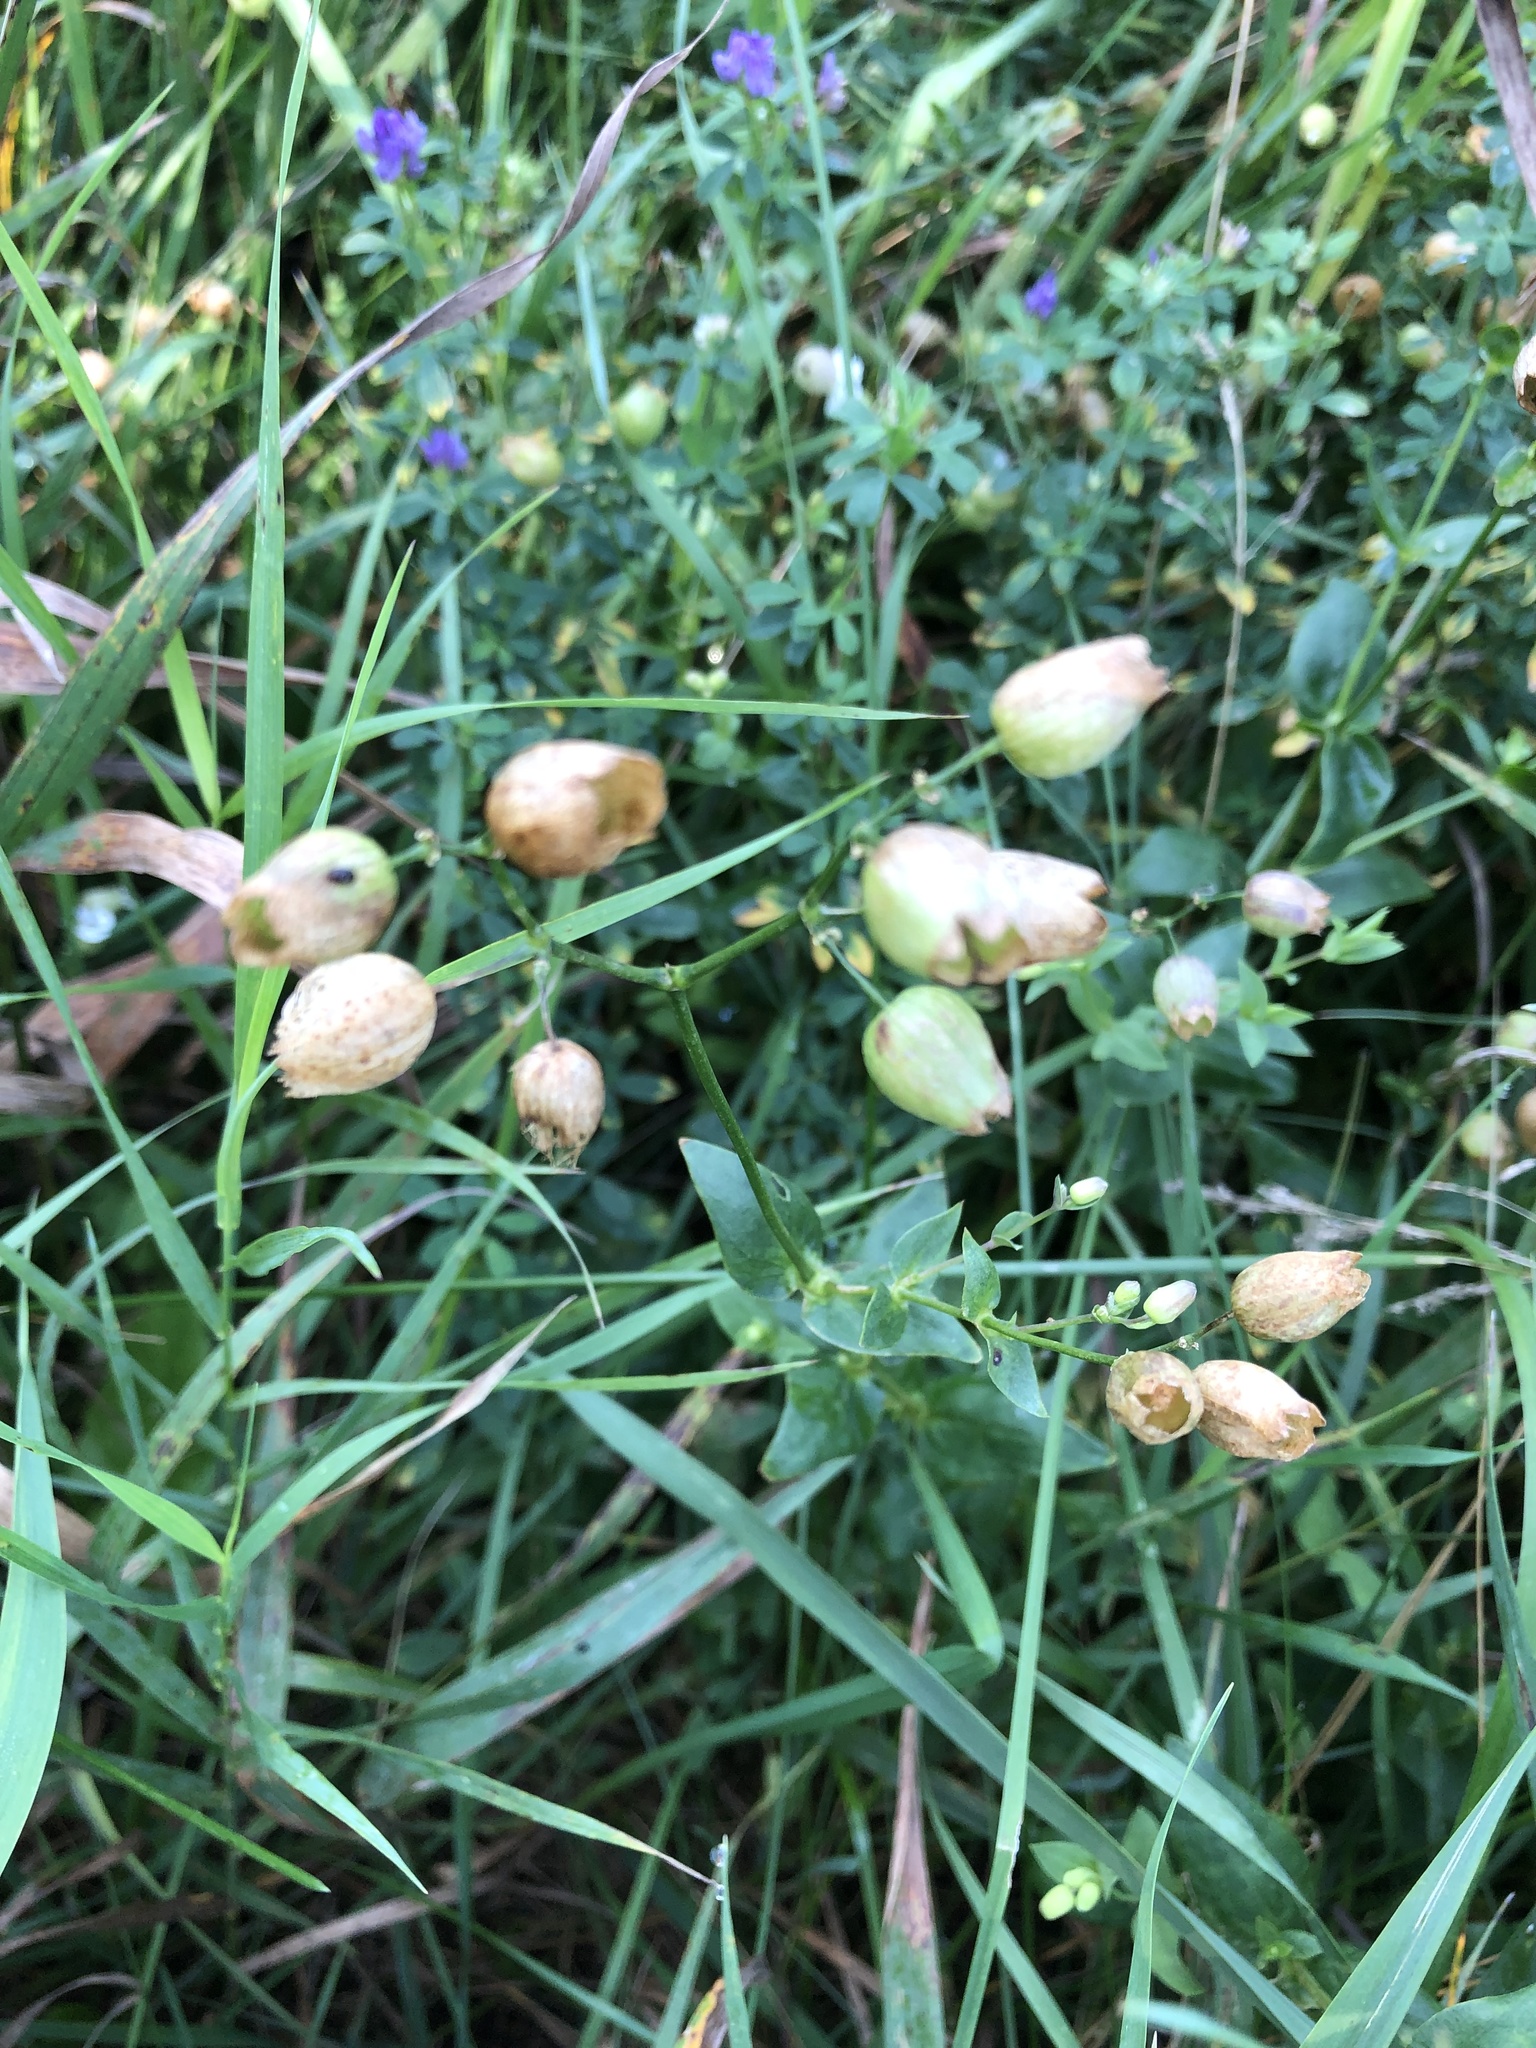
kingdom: Plantae
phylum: Tracheophyta
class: Magnoliopsida
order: Caryophyllales
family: Caryophyllaceae
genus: Silene
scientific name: Silene vulgaris
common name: Bladder campion
